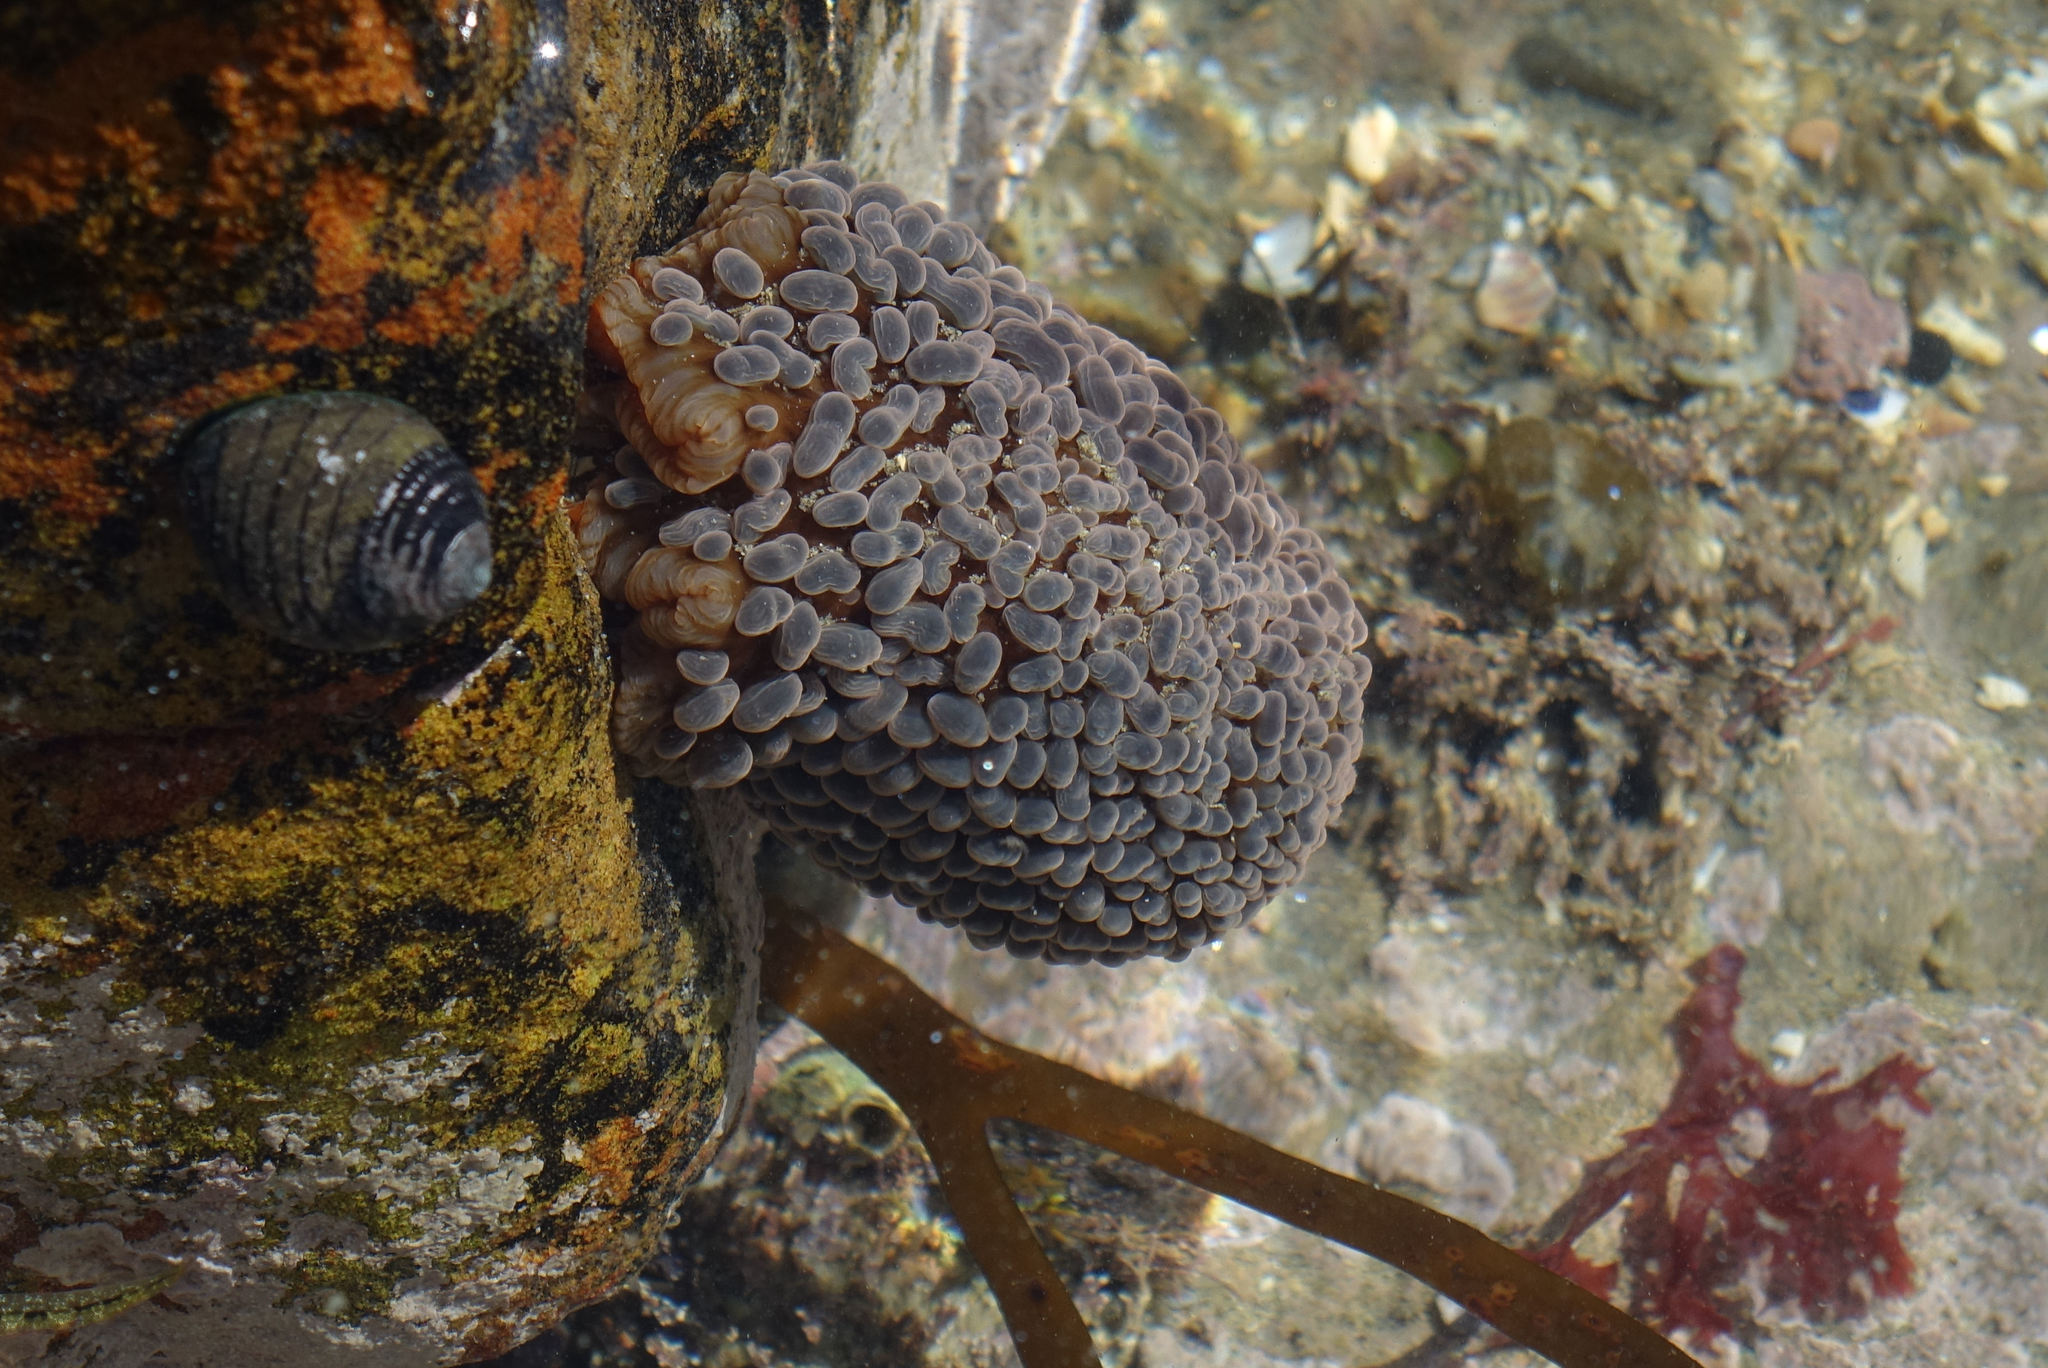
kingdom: Animalia
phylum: Cnidaria
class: Anthozoa
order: Actiniaria
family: Actiniidae
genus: Phlyctenactis
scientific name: Phlyctenactis tuberculosa
